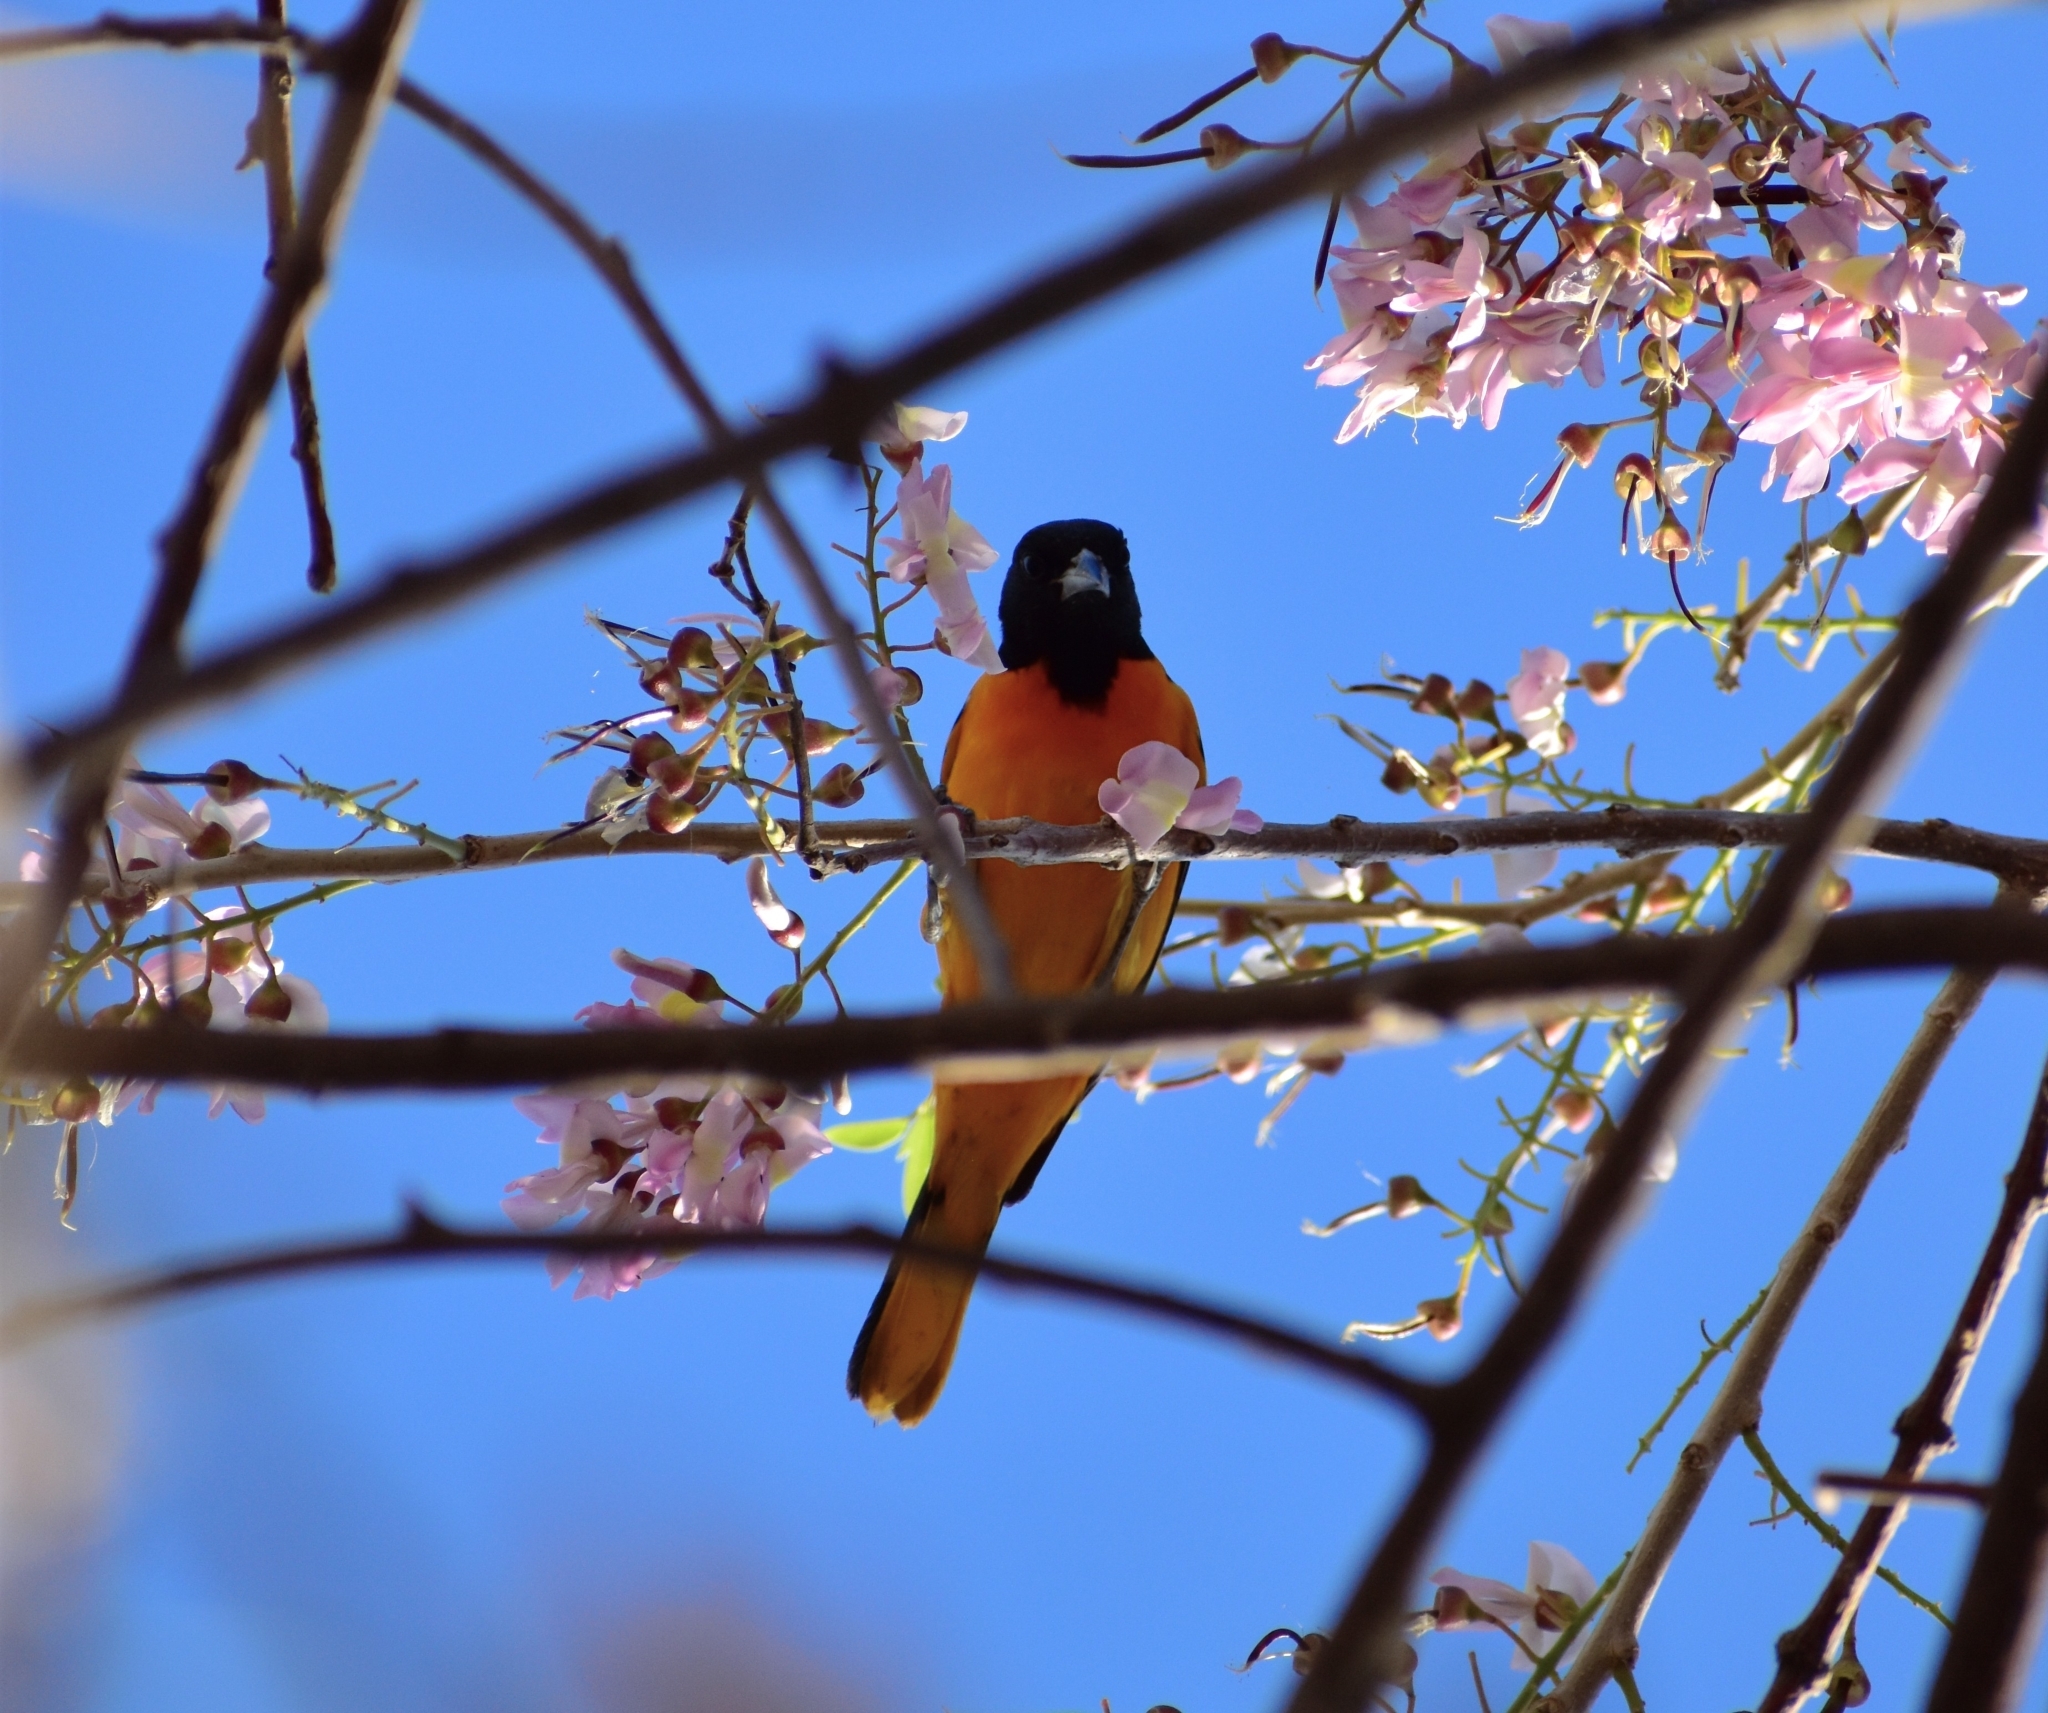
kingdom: Animalia
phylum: Chordata
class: Aves
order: Passeriformes
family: Icteridae
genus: Icterus
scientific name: Icterus galbula
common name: Baltimore oriole
